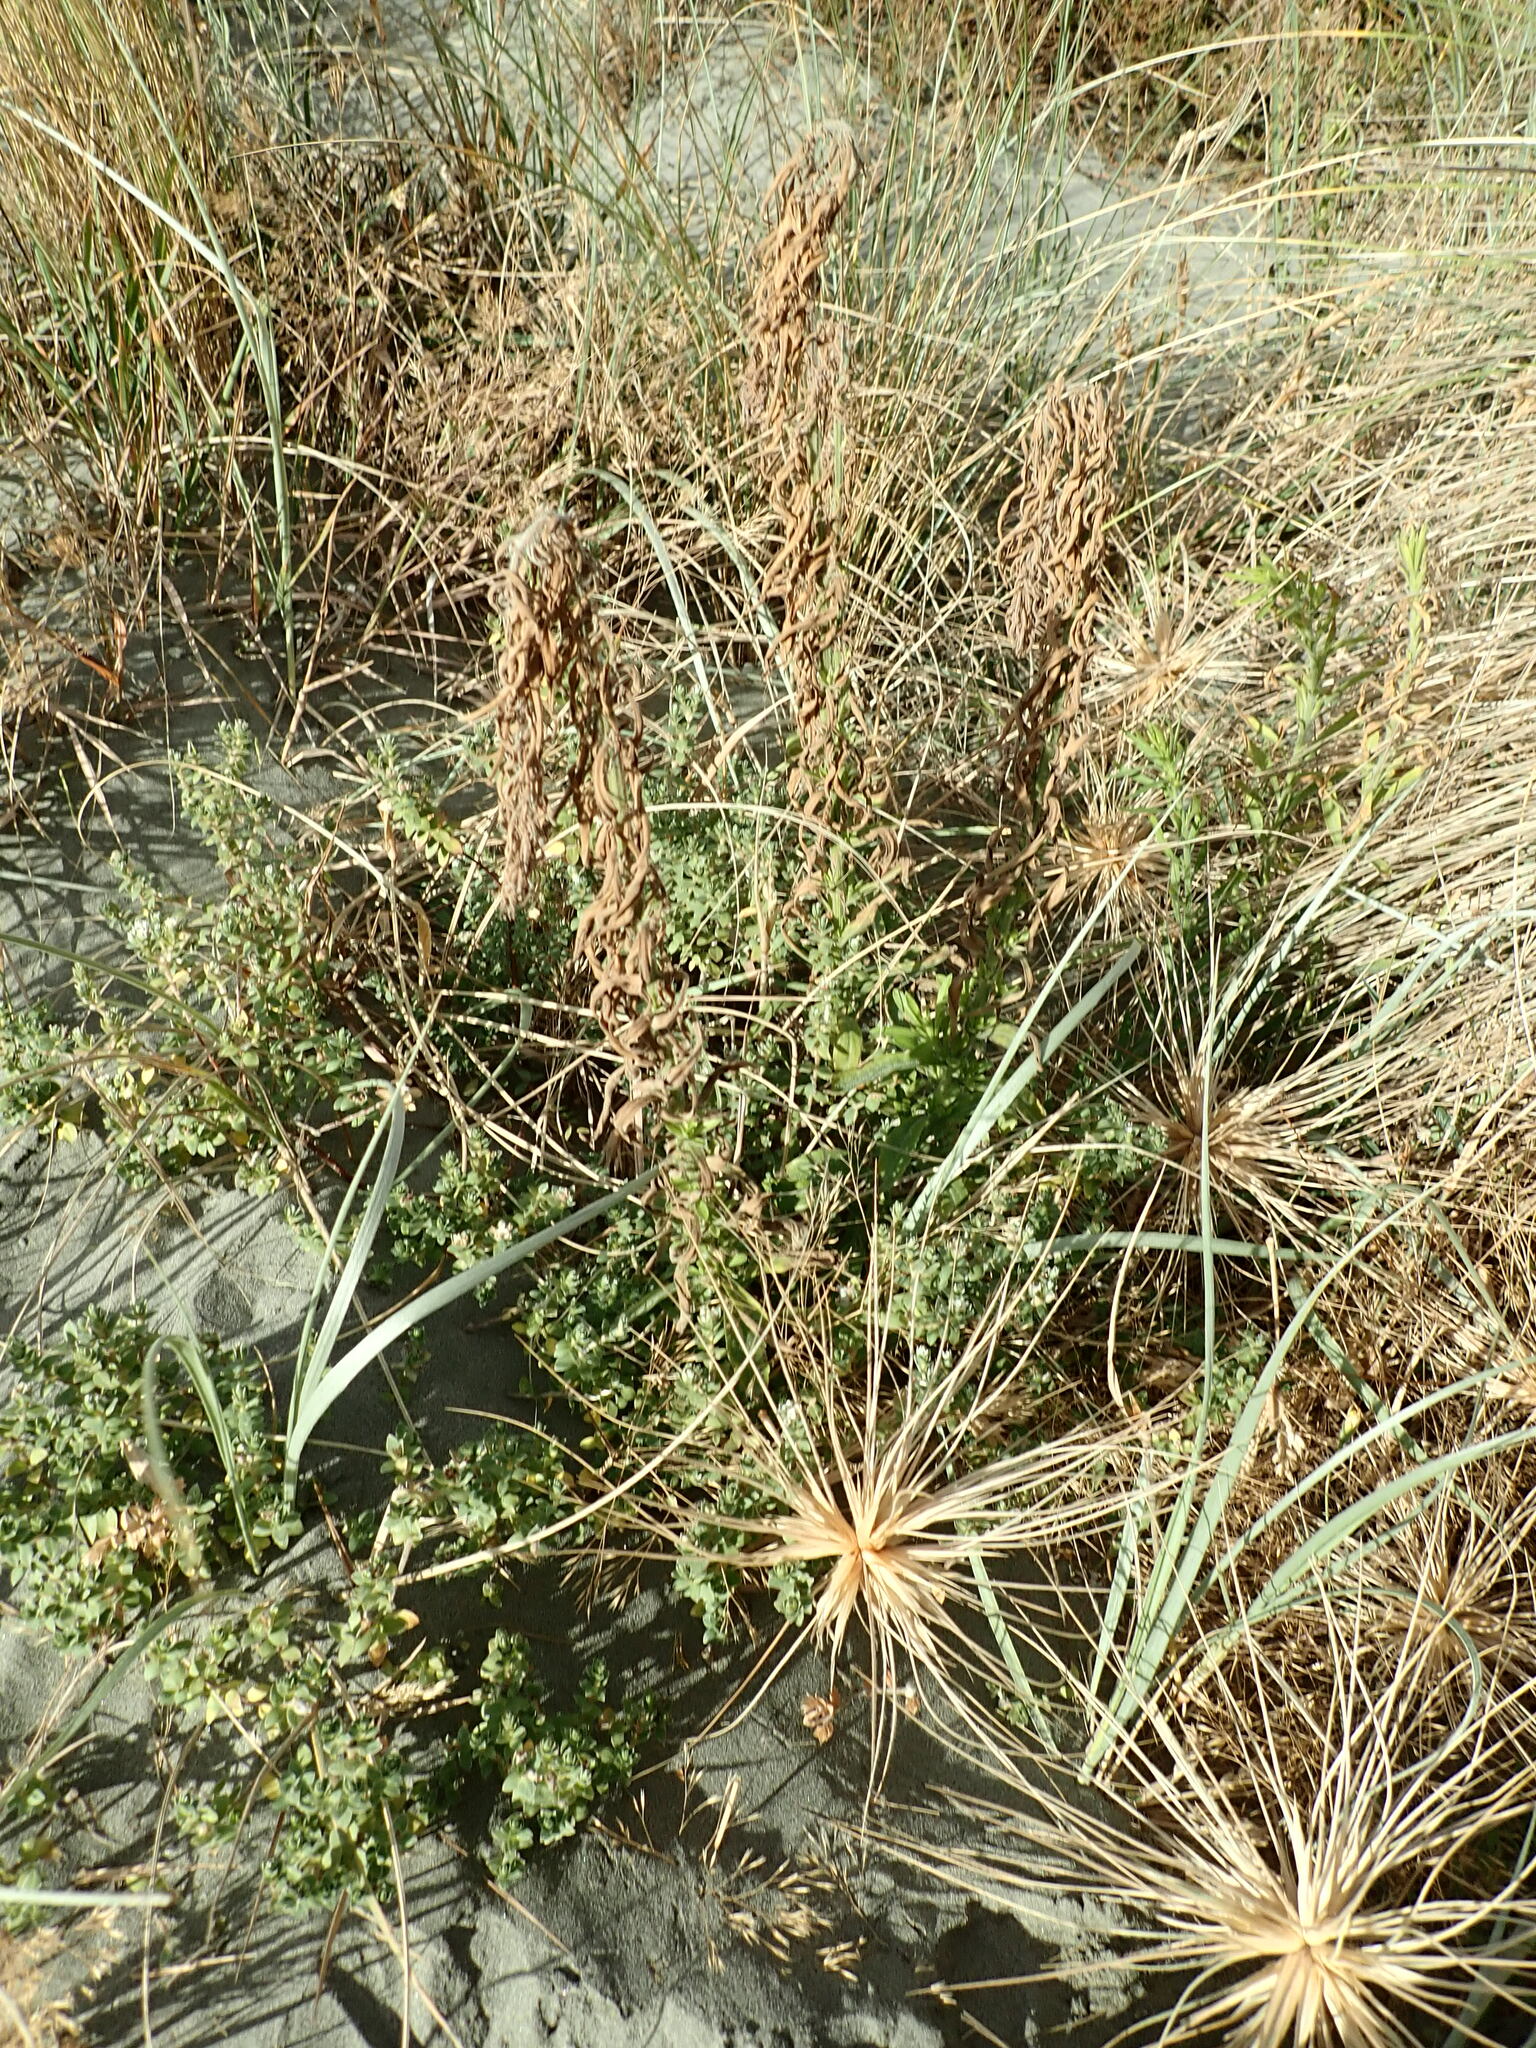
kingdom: Plantae
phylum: Tracheophyta
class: Magnoliopsida
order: Asterales
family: Asteraceae
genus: Erigeron
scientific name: Erigeron sumatrensis
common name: Daisy
